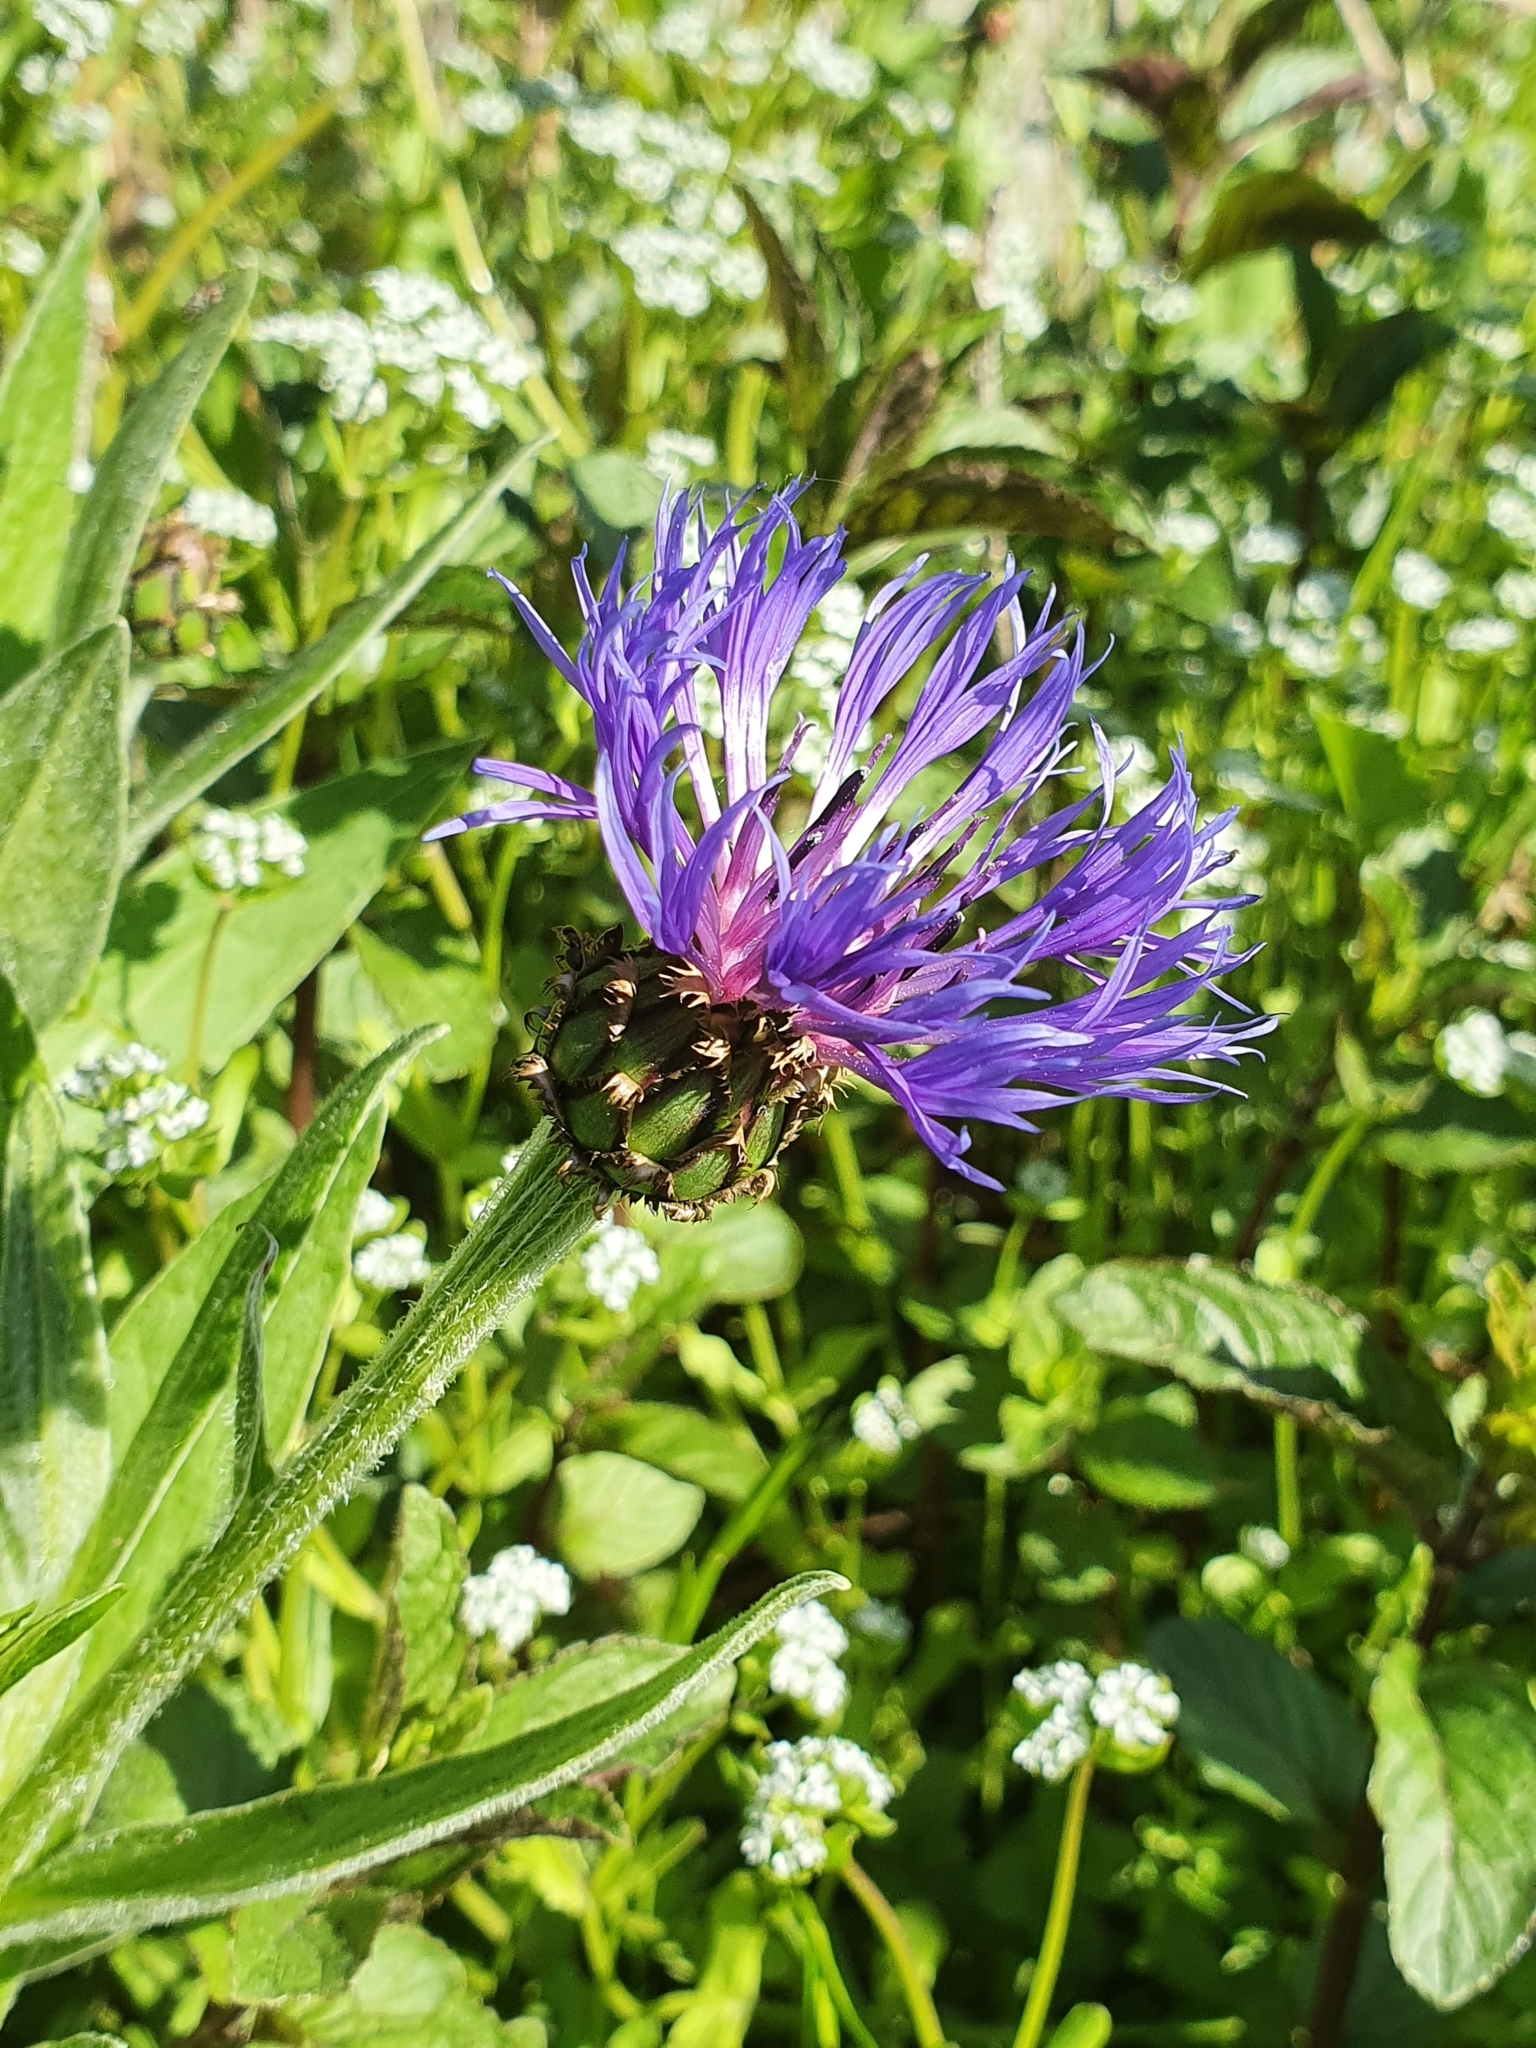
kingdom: Plantae
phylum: Tracheophyta
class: Magnoliopsida
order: Asterales
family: Asteraceae
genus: Centaurea
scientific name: Centaurea montana
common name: Perennial cornflower
